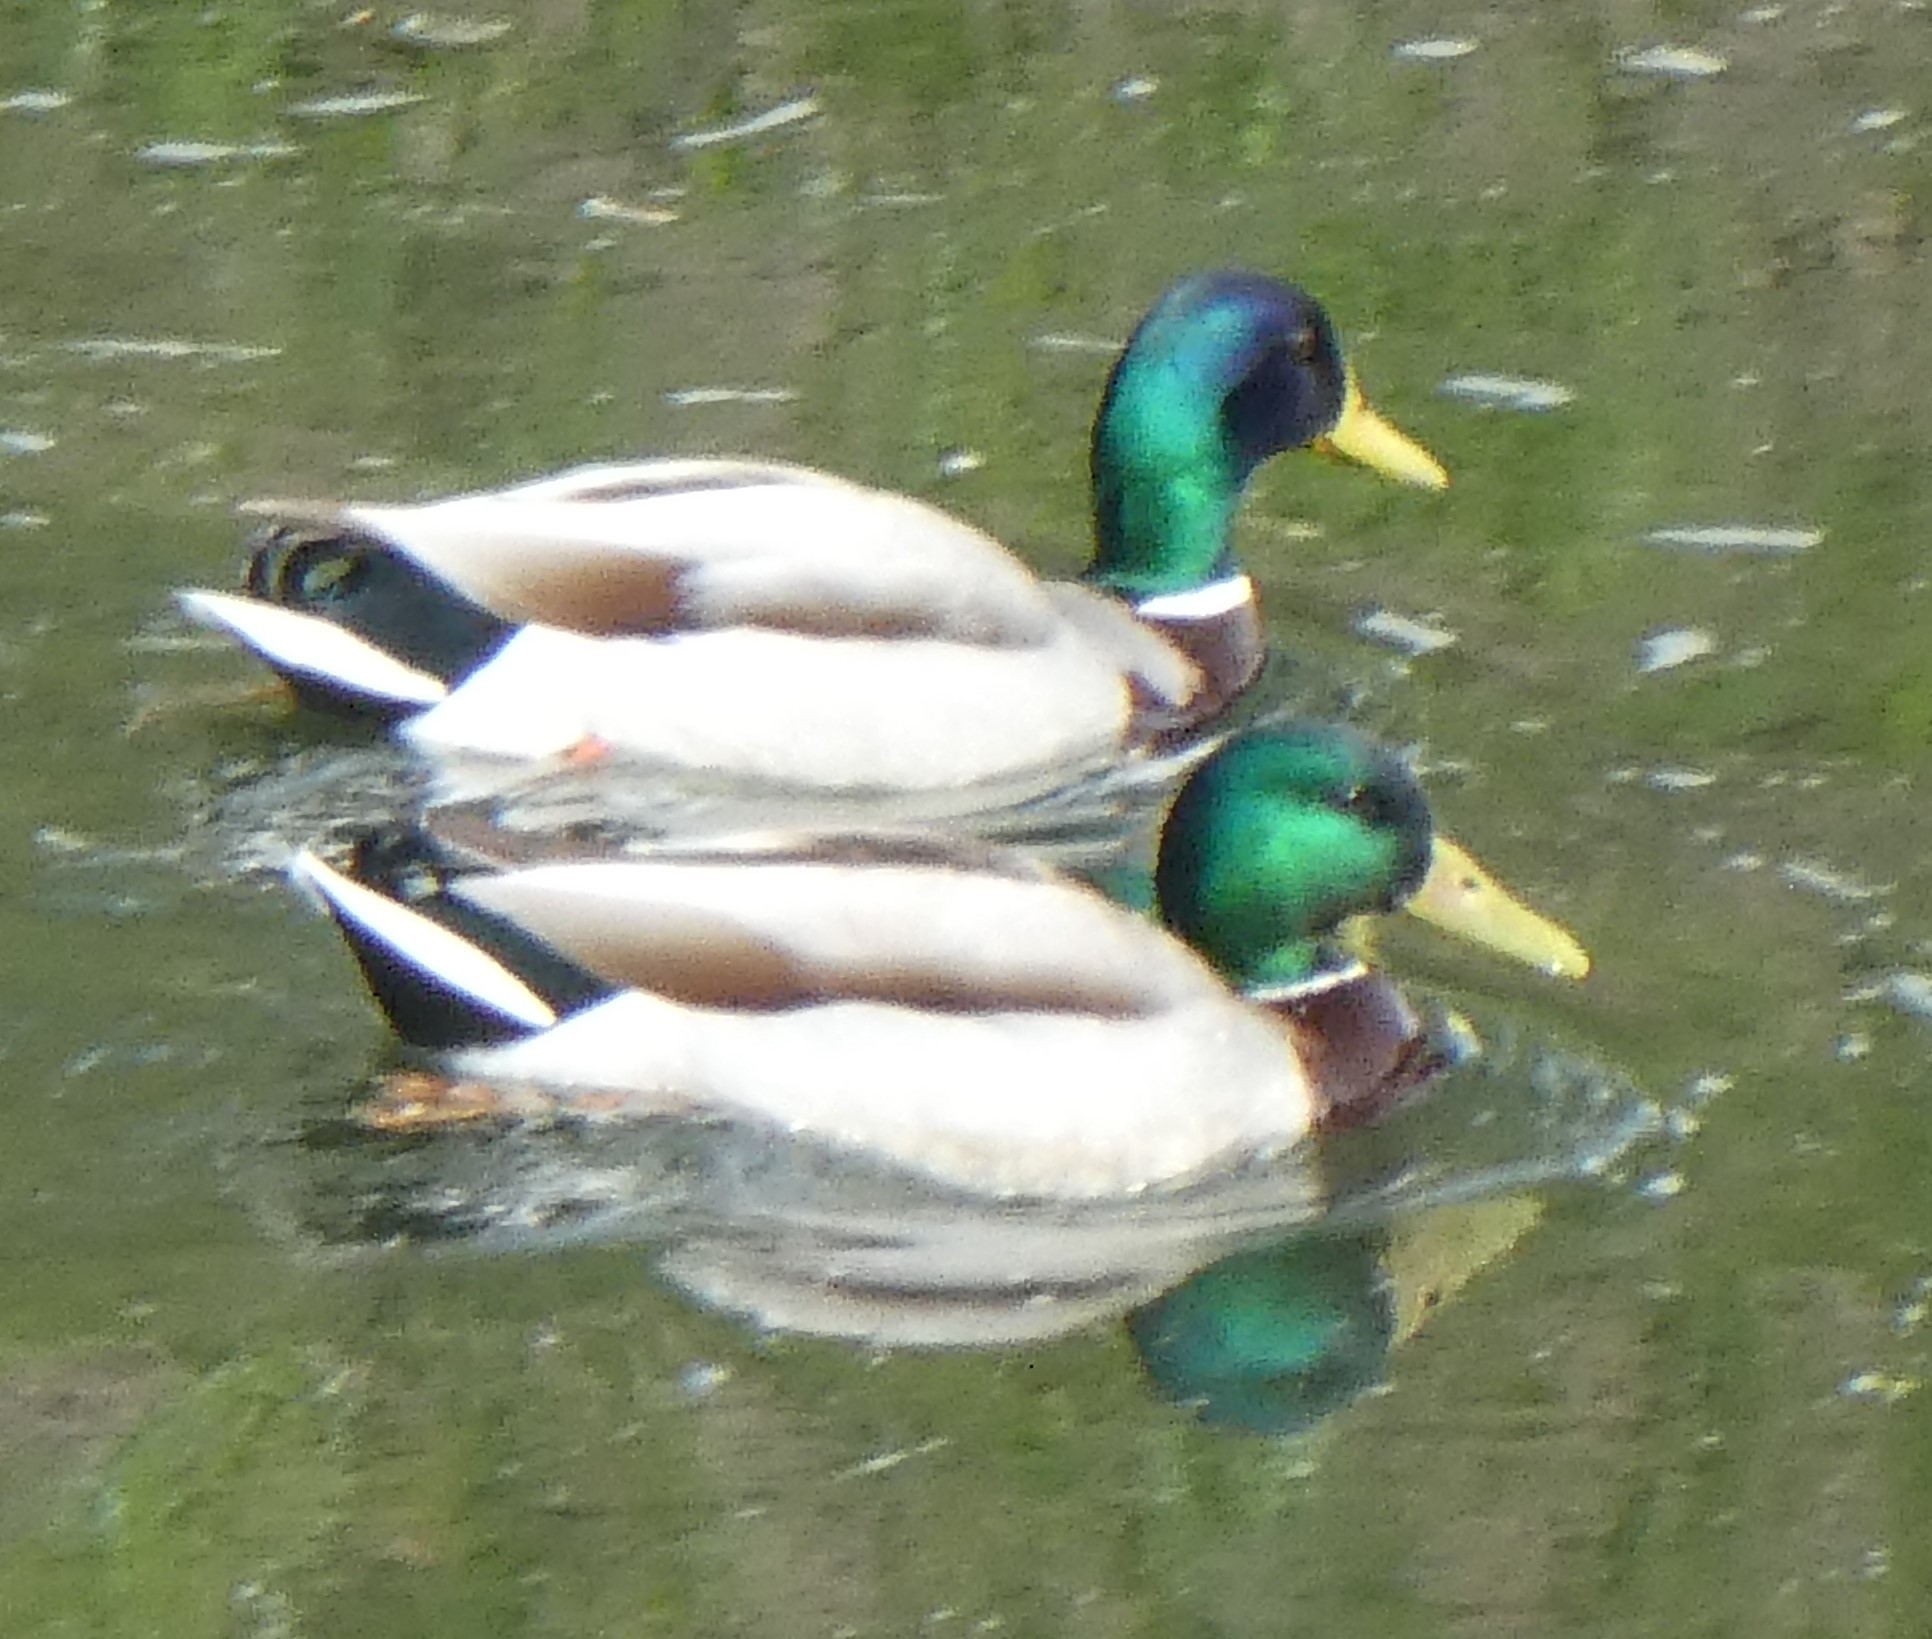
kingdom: Animalia
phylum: Chordata
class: Aves
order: Anseriformes
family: Anatidae
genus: Anas
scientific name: Anas platyrhynchos
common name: Mallard
